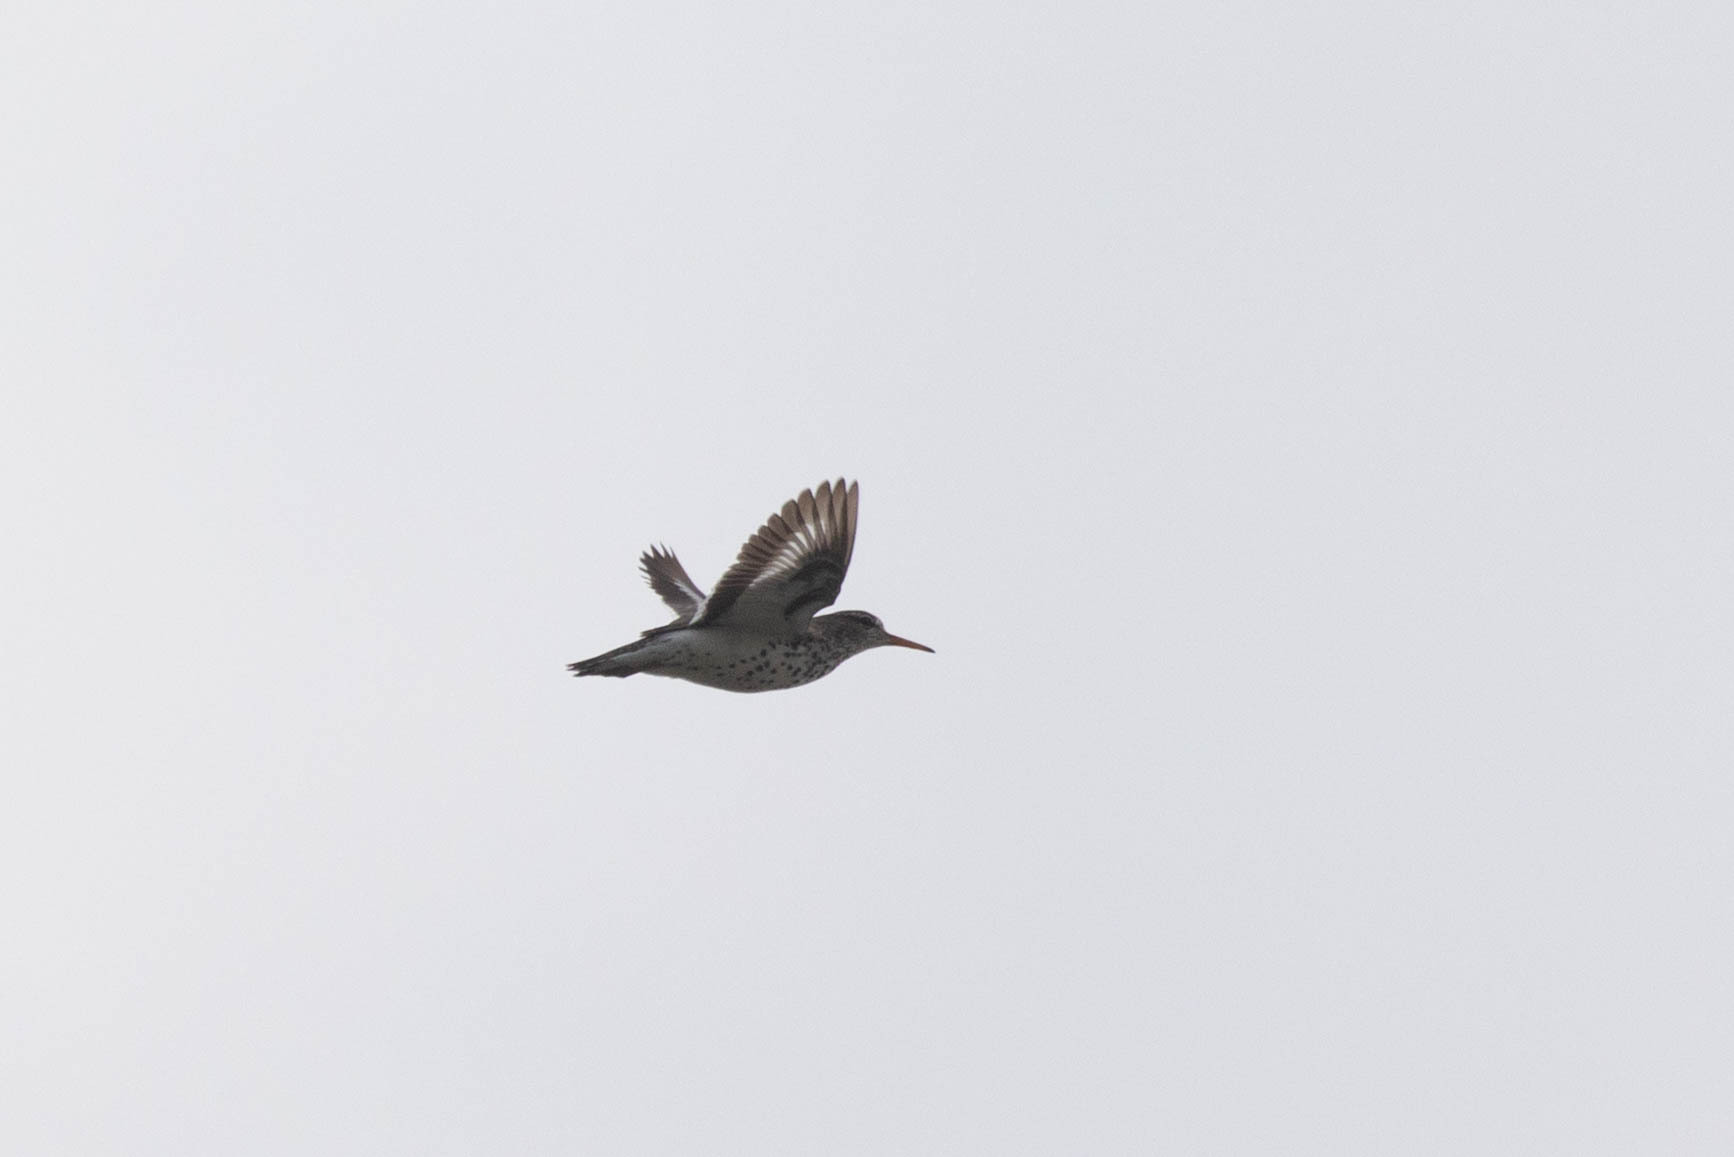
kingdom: Animalia
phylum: Chordata
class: Aves
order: Charadriiformes
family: Scolopacidae
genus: Actitis
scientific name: Actitis macularius
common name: Spotted sandpiper
